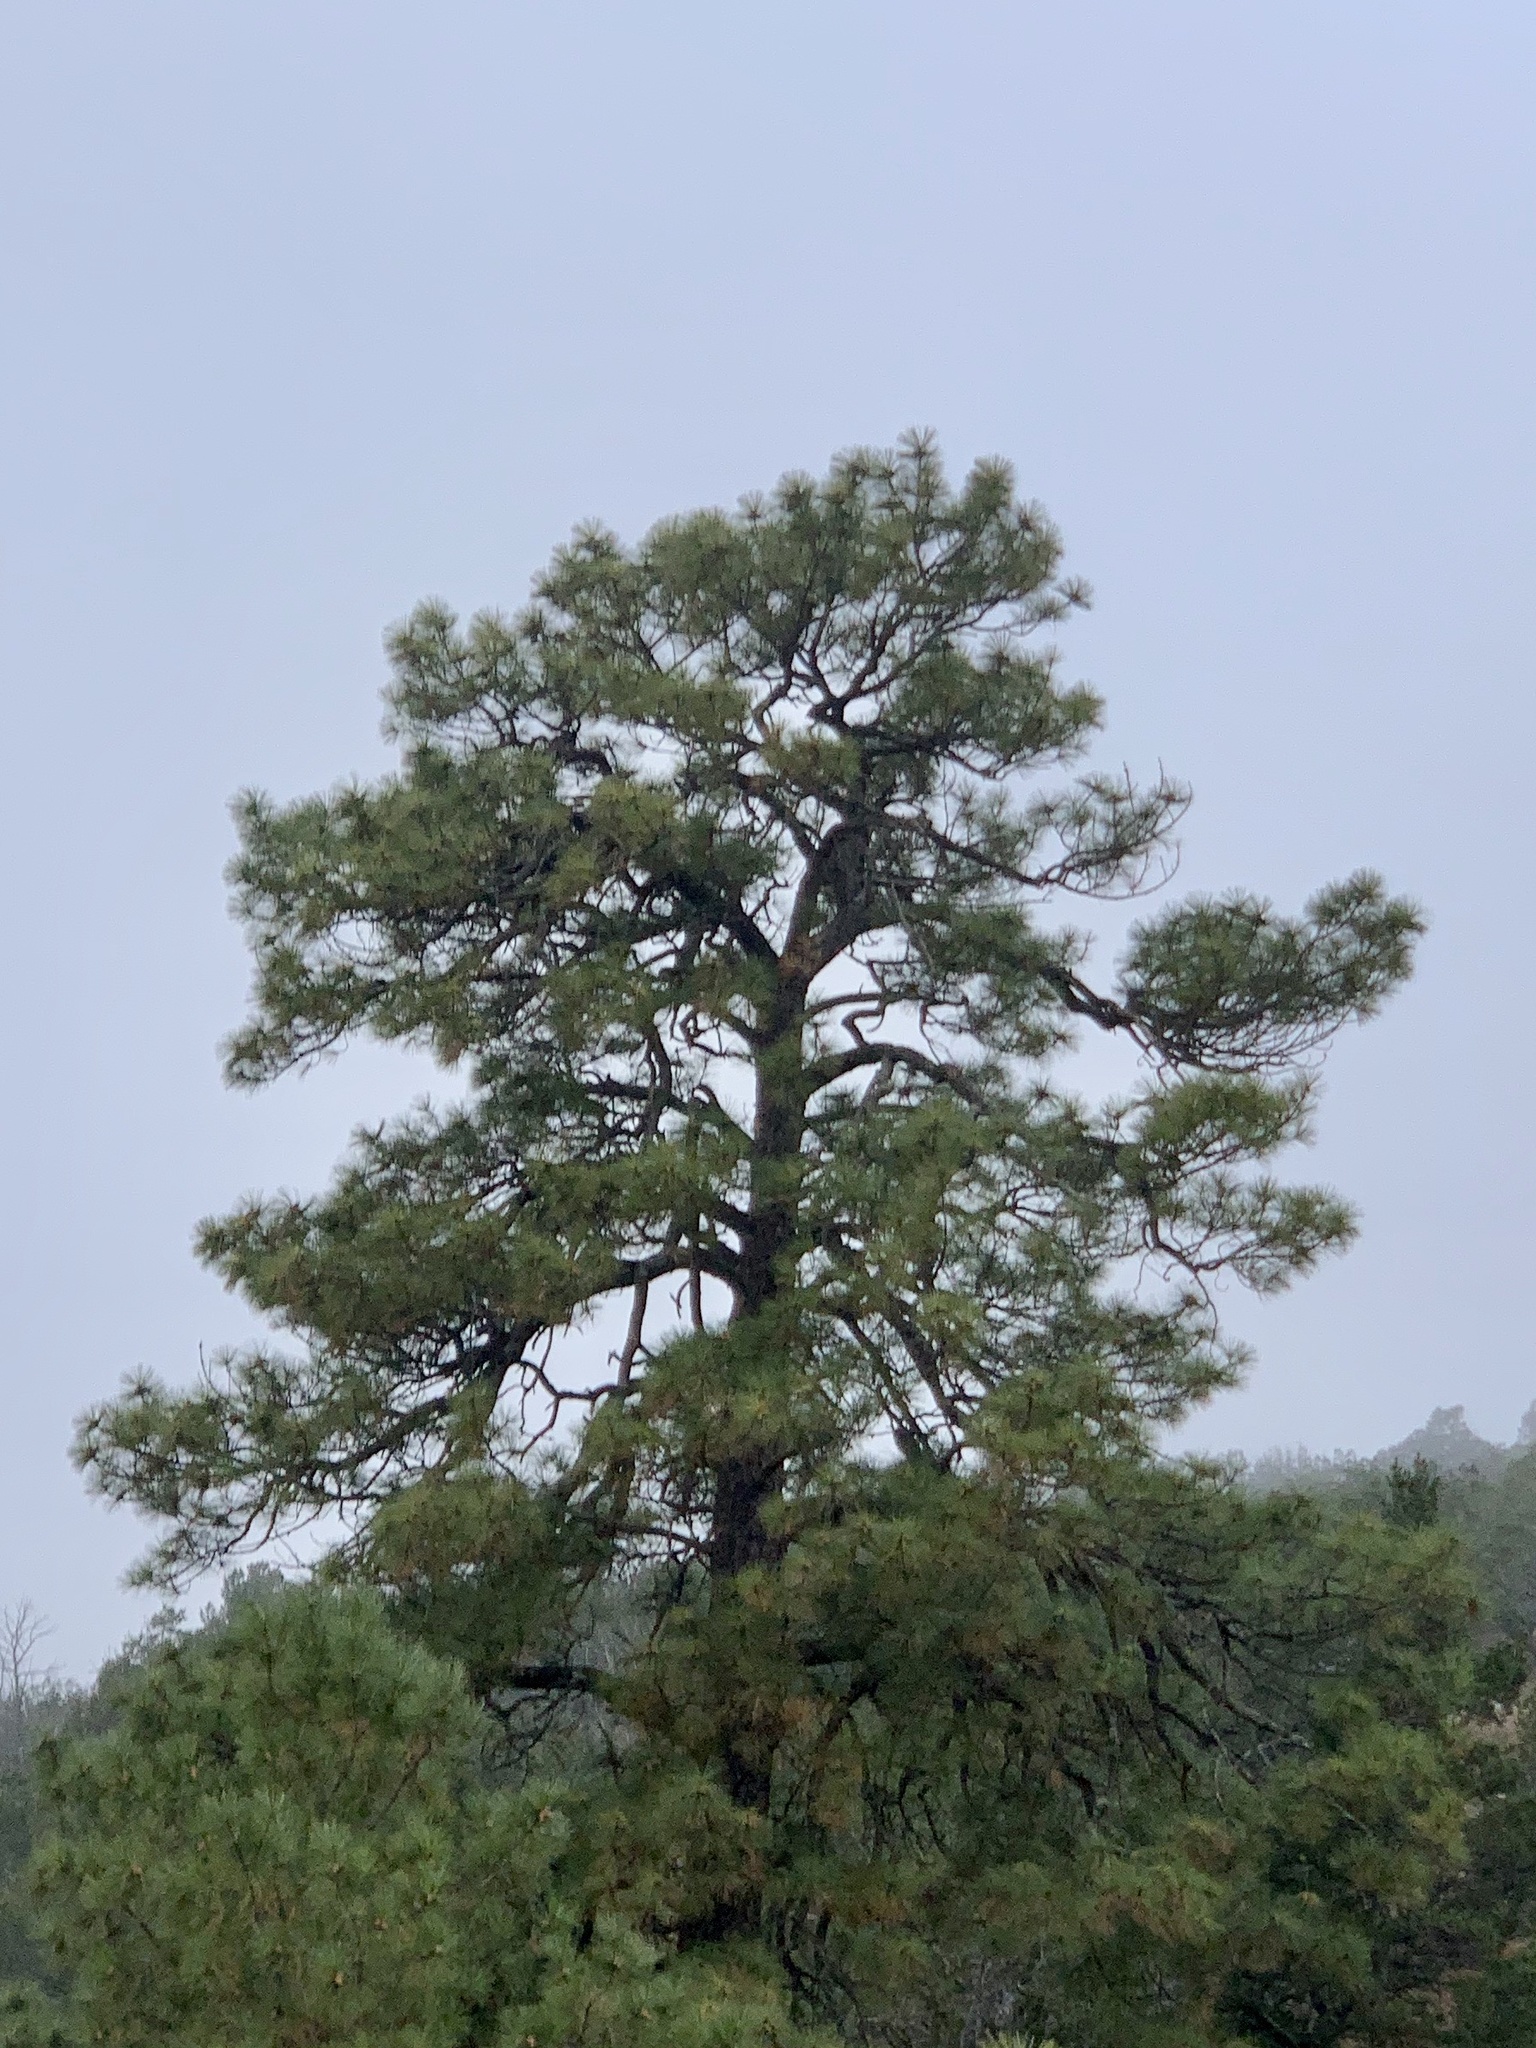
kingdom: Plantae
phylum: Tracheophyta
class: Pinopsida
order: Pinales
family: Pinaceae
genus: Pinus
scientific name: Pinus ponderosa
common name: Western yellow-pine
